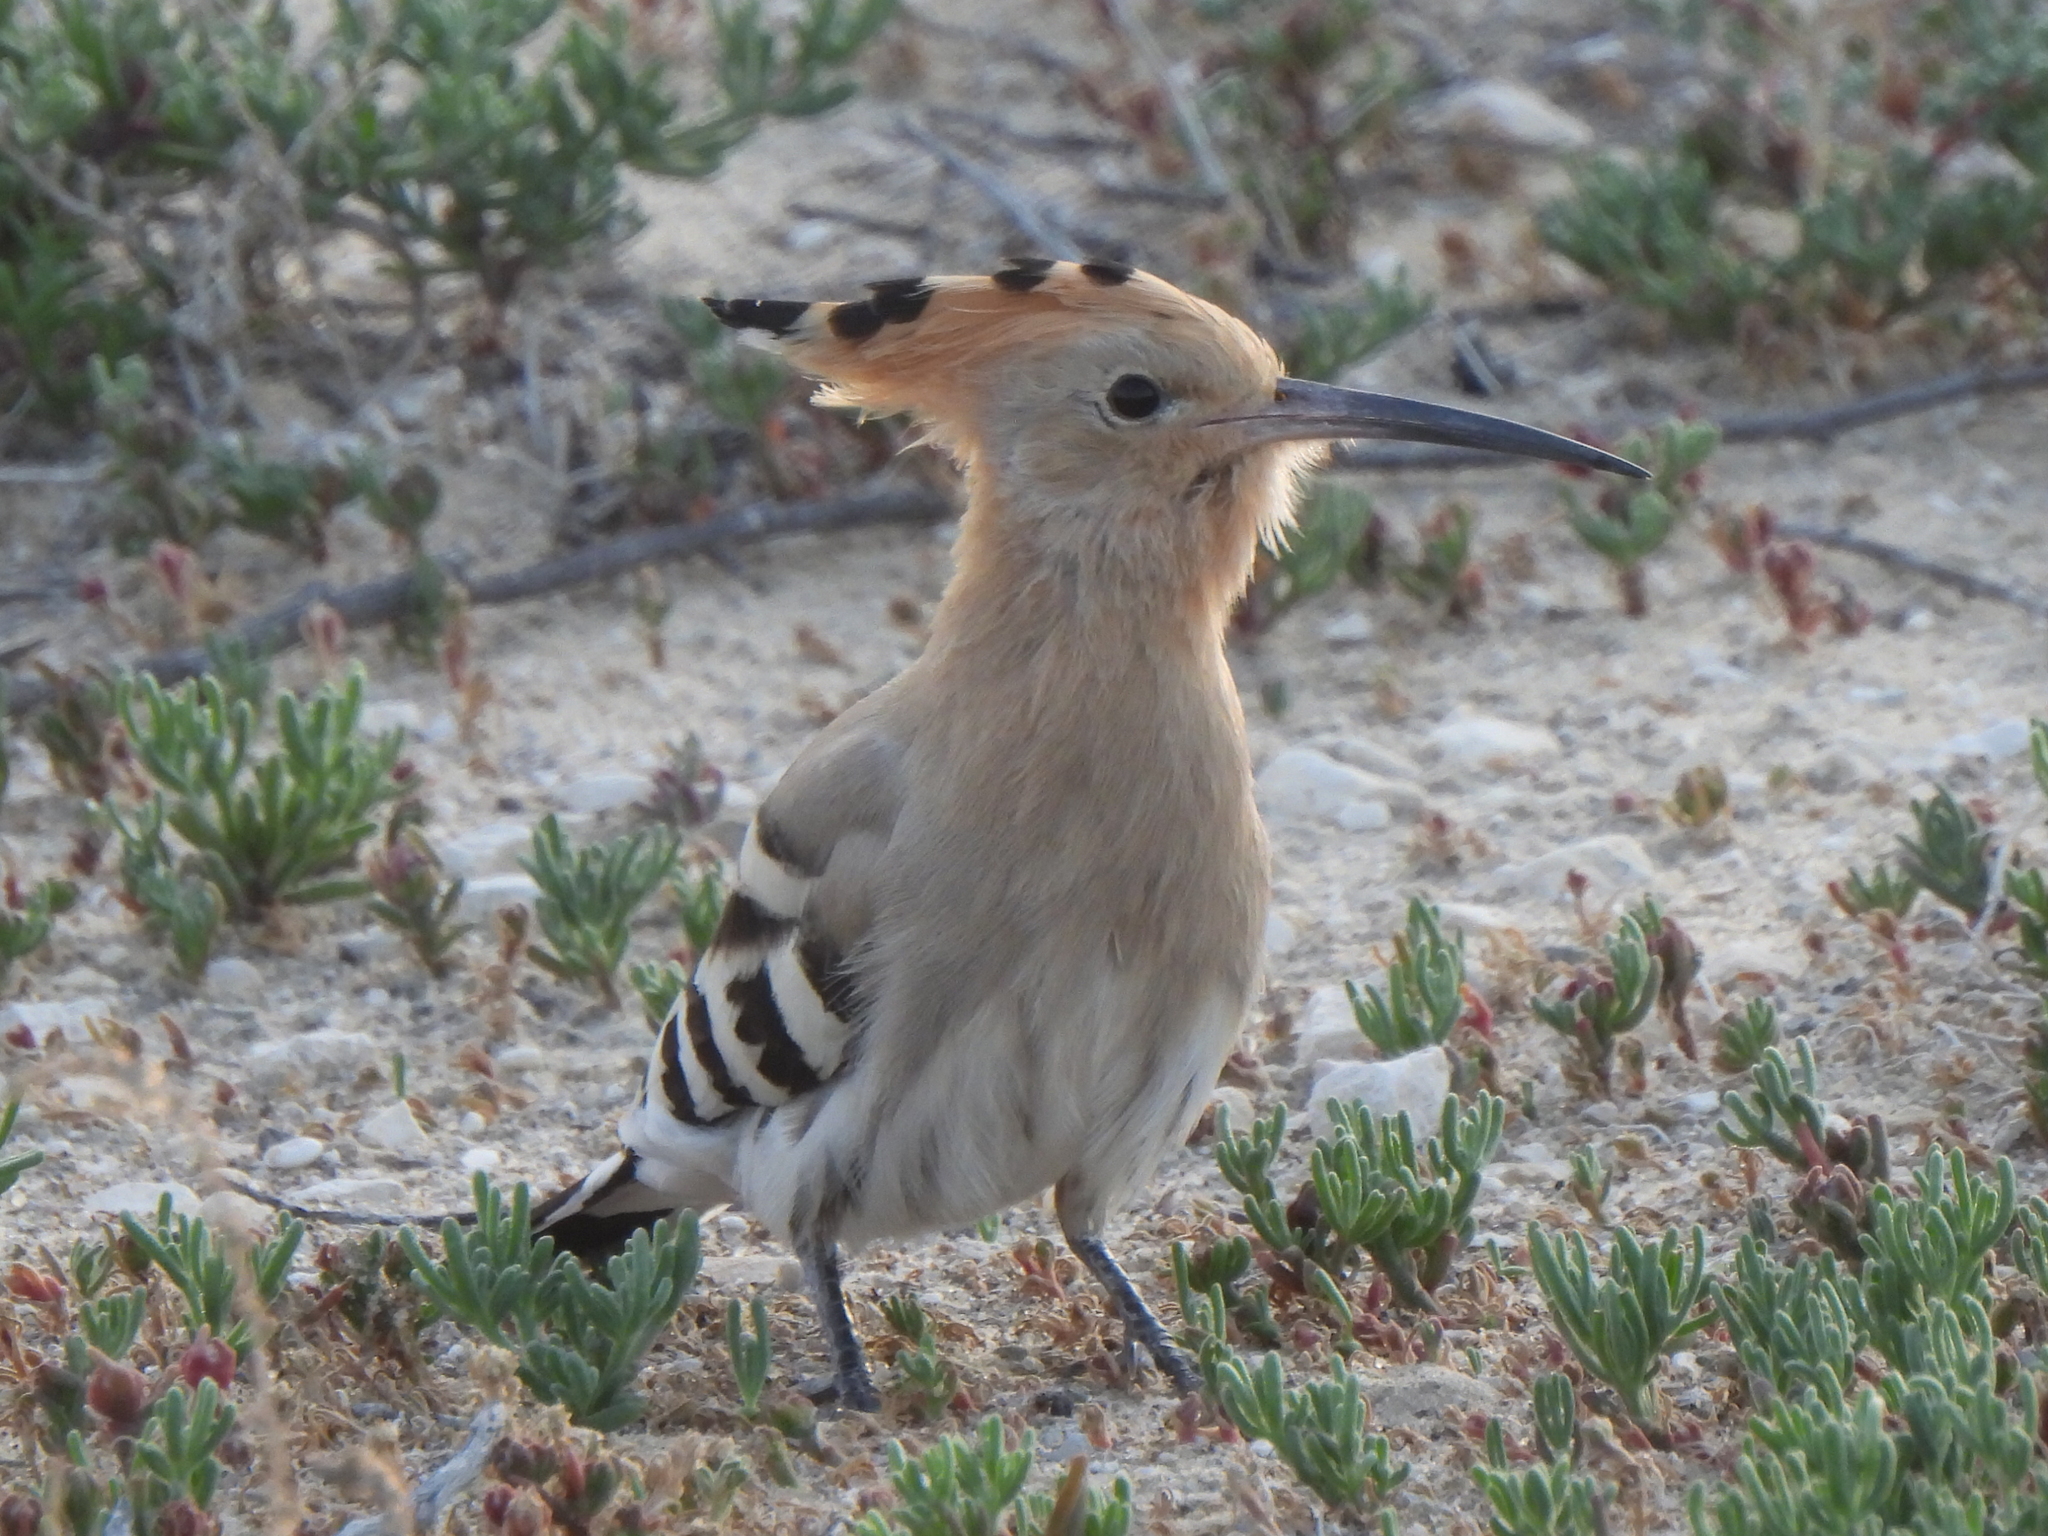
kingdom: Animalia
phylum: Chordata
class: Aves
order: Bucerotiformes
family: Upupidae
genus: Upupa
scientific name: Upupa epops
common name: Eurasian hoopoe
